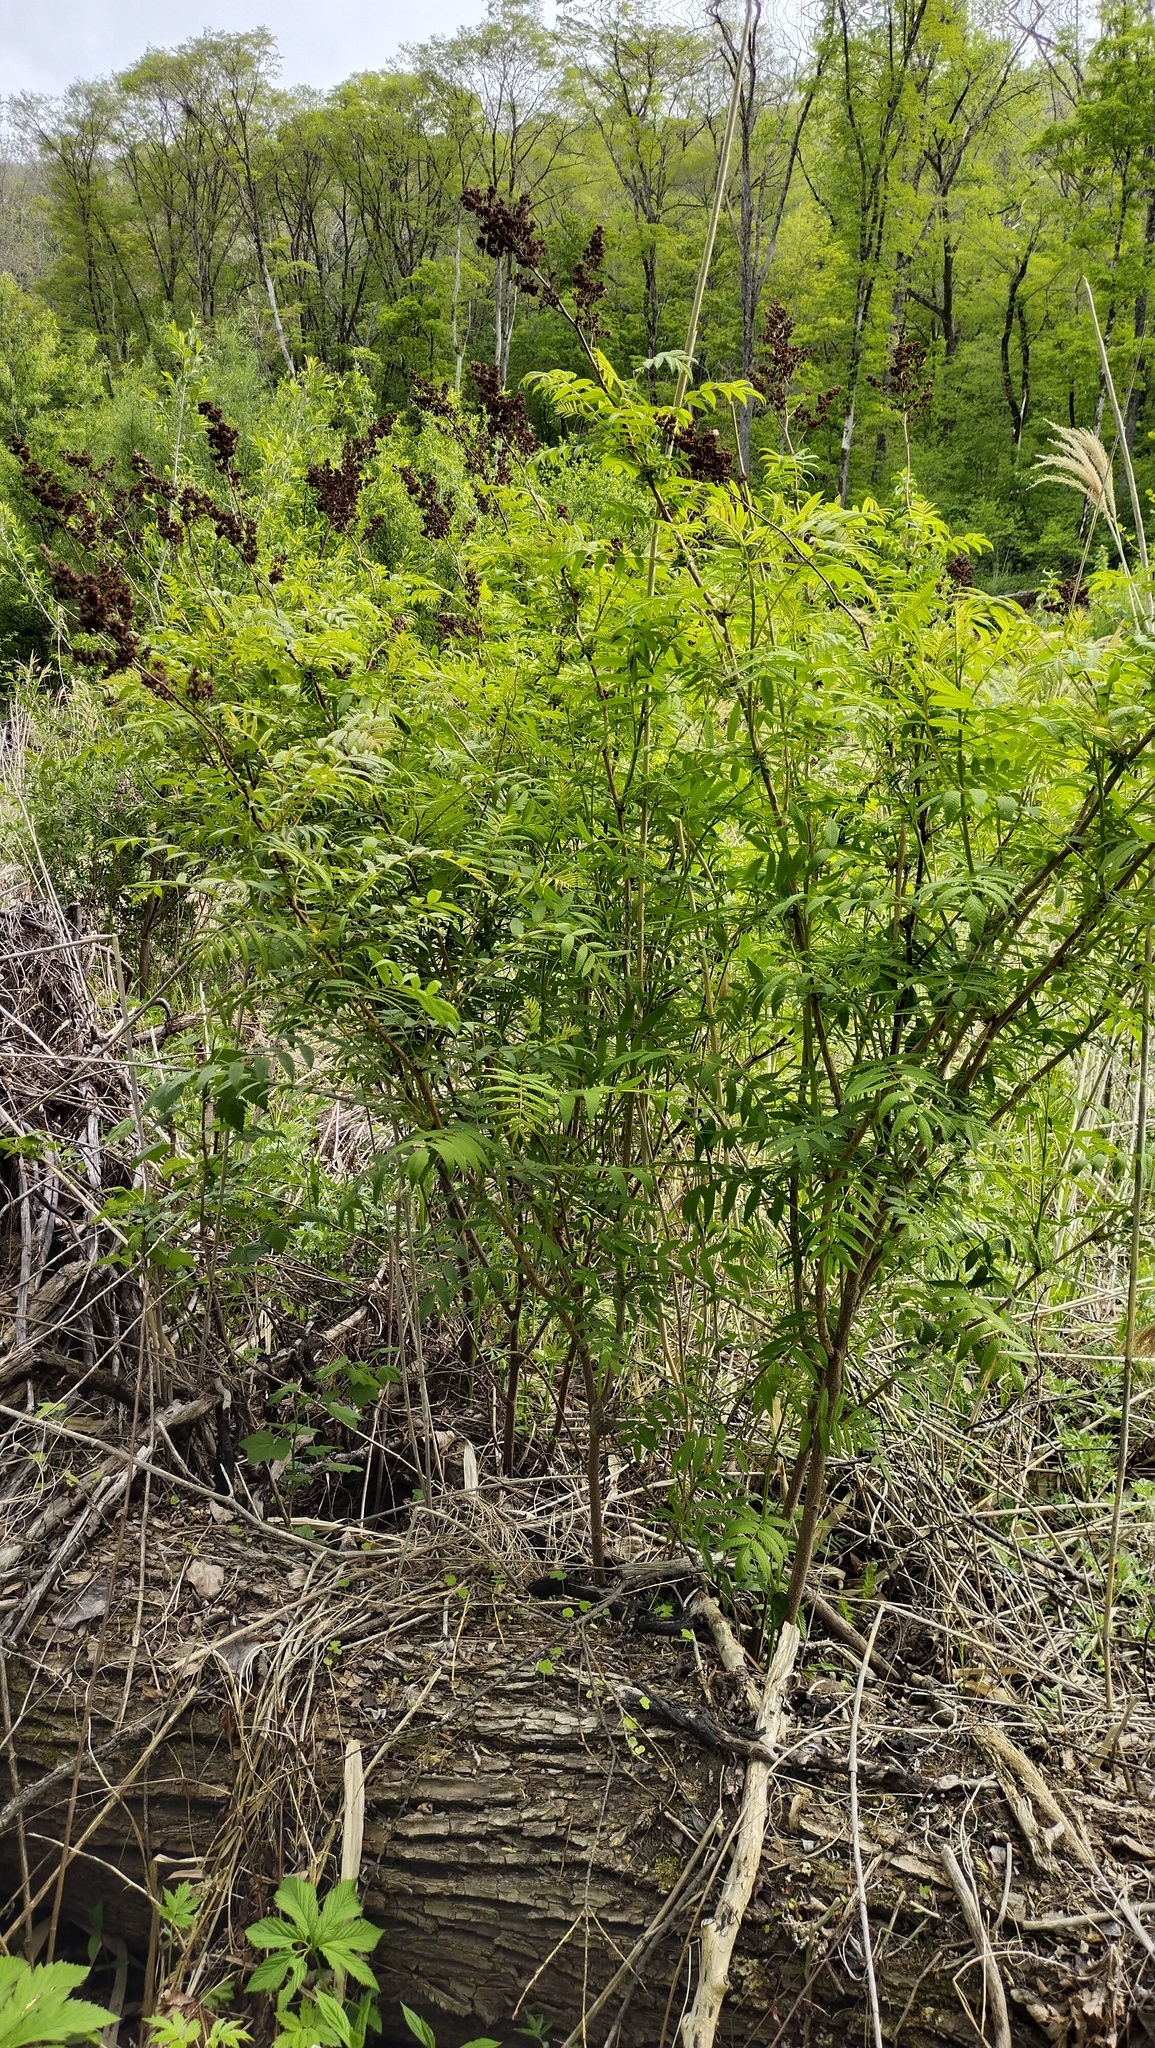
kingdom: Plantae
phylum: Tracheophyta
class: Magnoliopsida
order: Rosales
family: Rosaceae
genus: Sorbaria
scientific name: Sorbaria sorbifolia
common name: False spiraea
